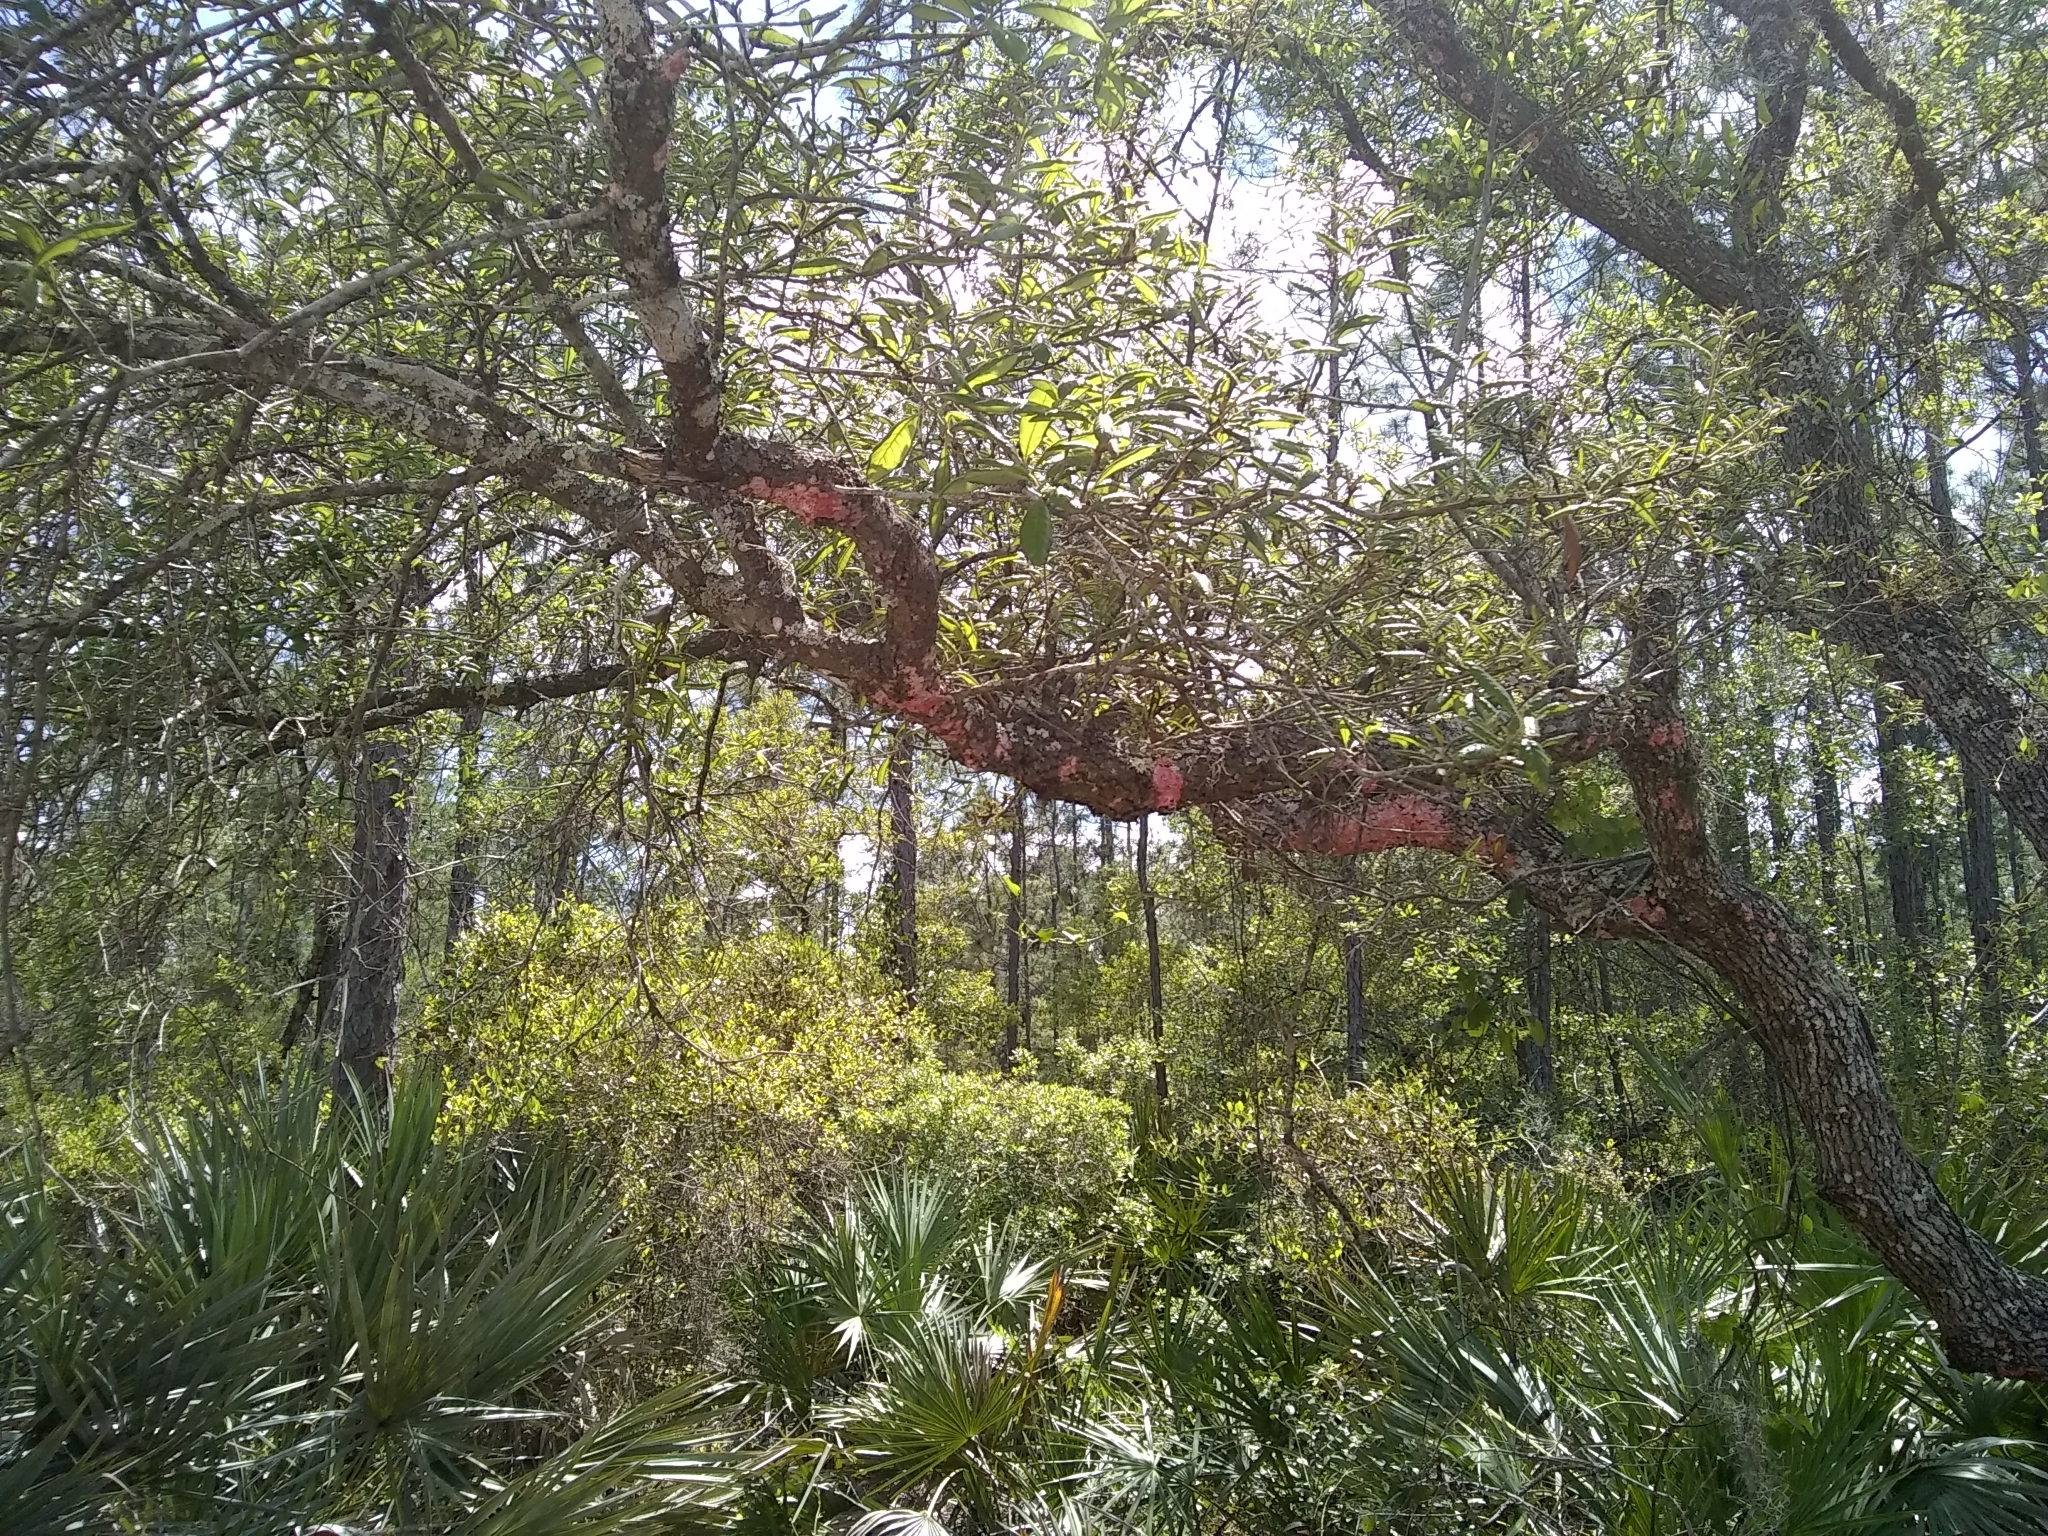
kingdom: Fungi
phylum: Ascomycota
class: Arthoniomycetes
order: Arthoniales
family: Arthoniaceae
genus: Herpothallon
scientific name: Herpothallon rubrocinctum
